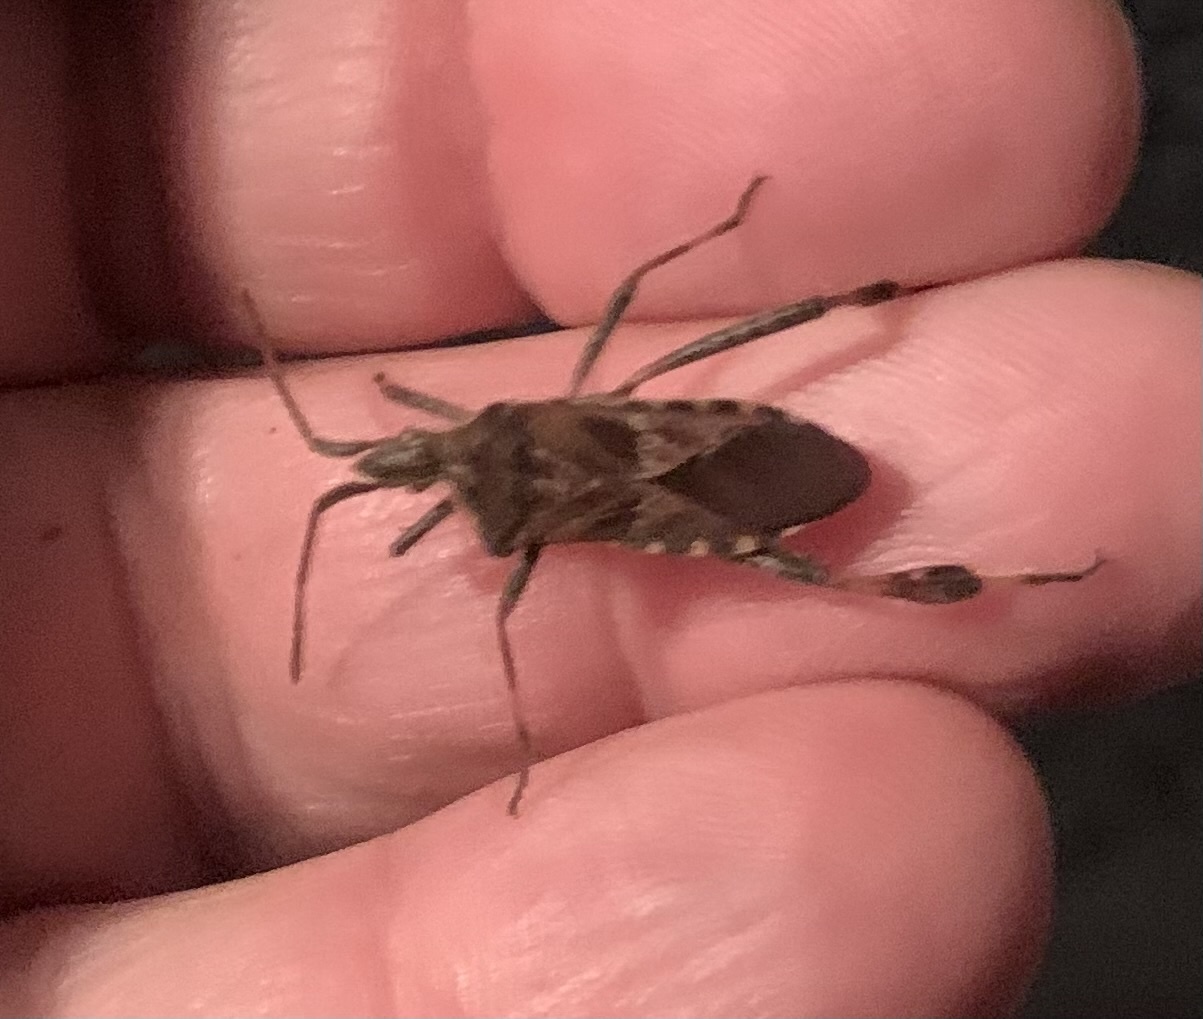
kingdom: Animalia
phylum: Arthropoda
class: Insecta
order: Hemiptera
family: Coreidae
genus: Leptoglossus
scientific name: Leptoglossus occidentalis
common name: Western conifer-seed bug
